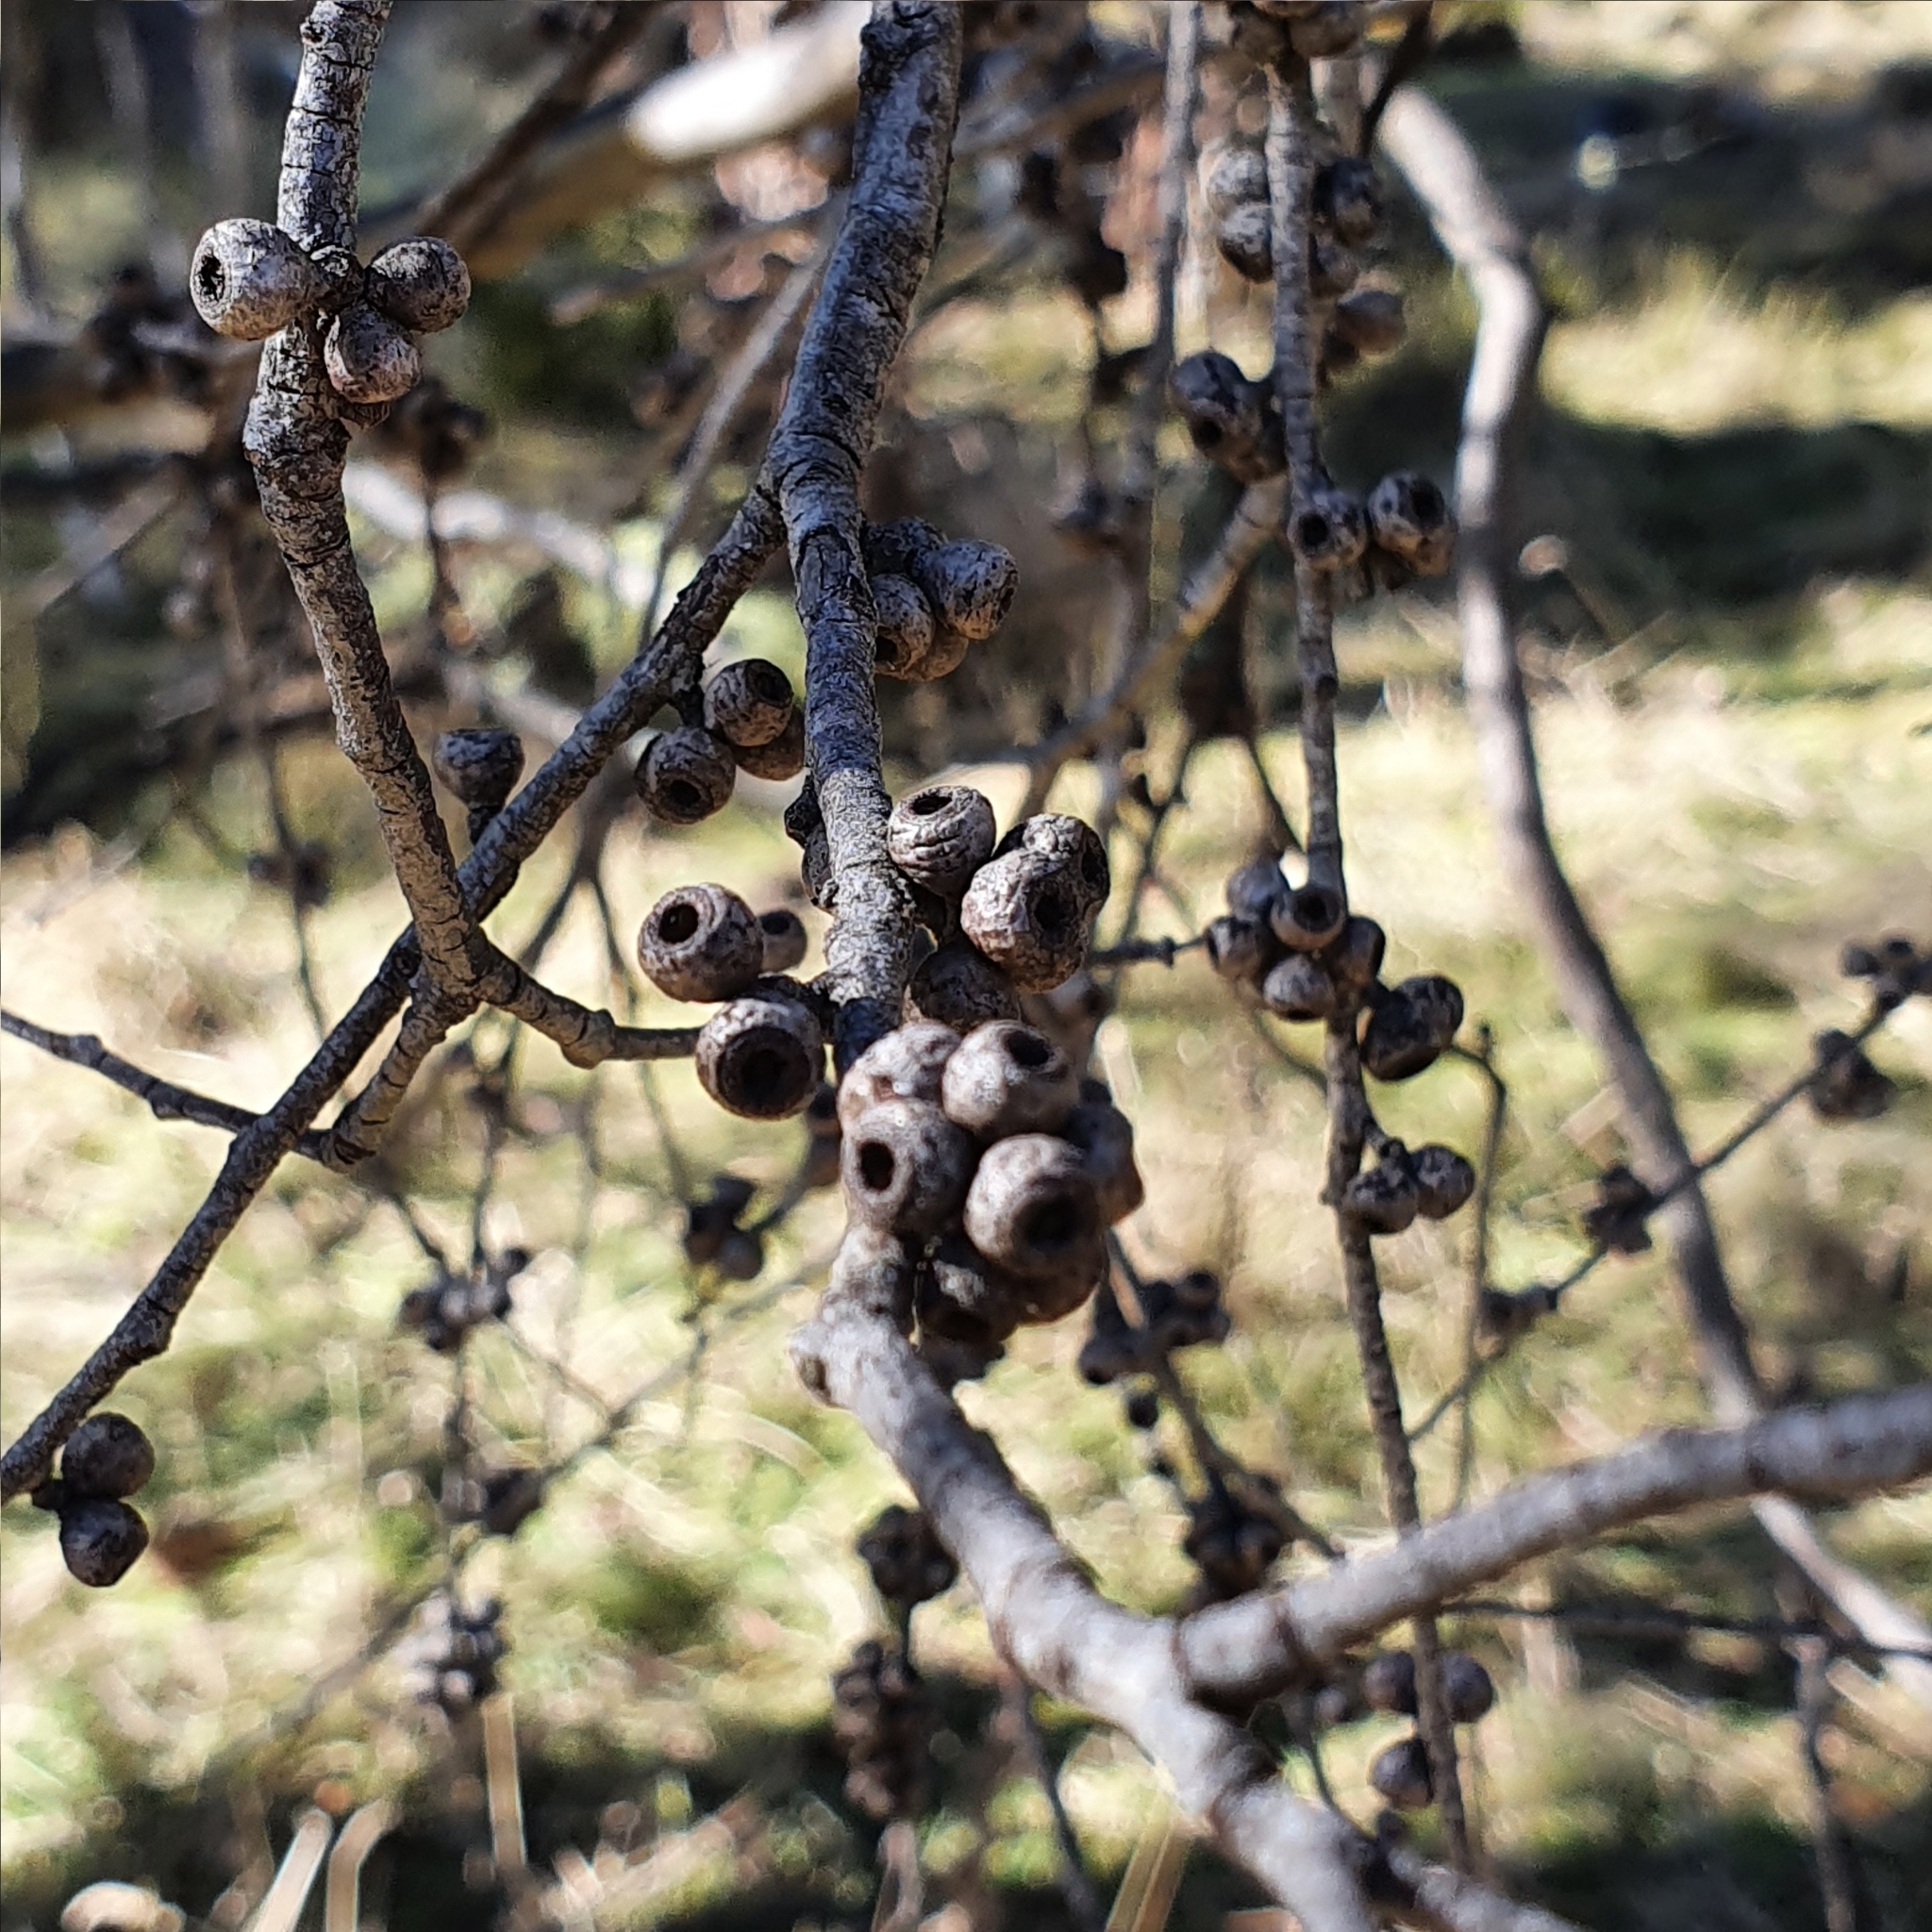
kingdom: Plantae
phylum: Tracheophyta
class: Magnoliopsida
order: Myrtales
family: Myrtaceae
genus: Eucalyptus
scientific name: Eucalyptus stellulata
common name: Black sallee
